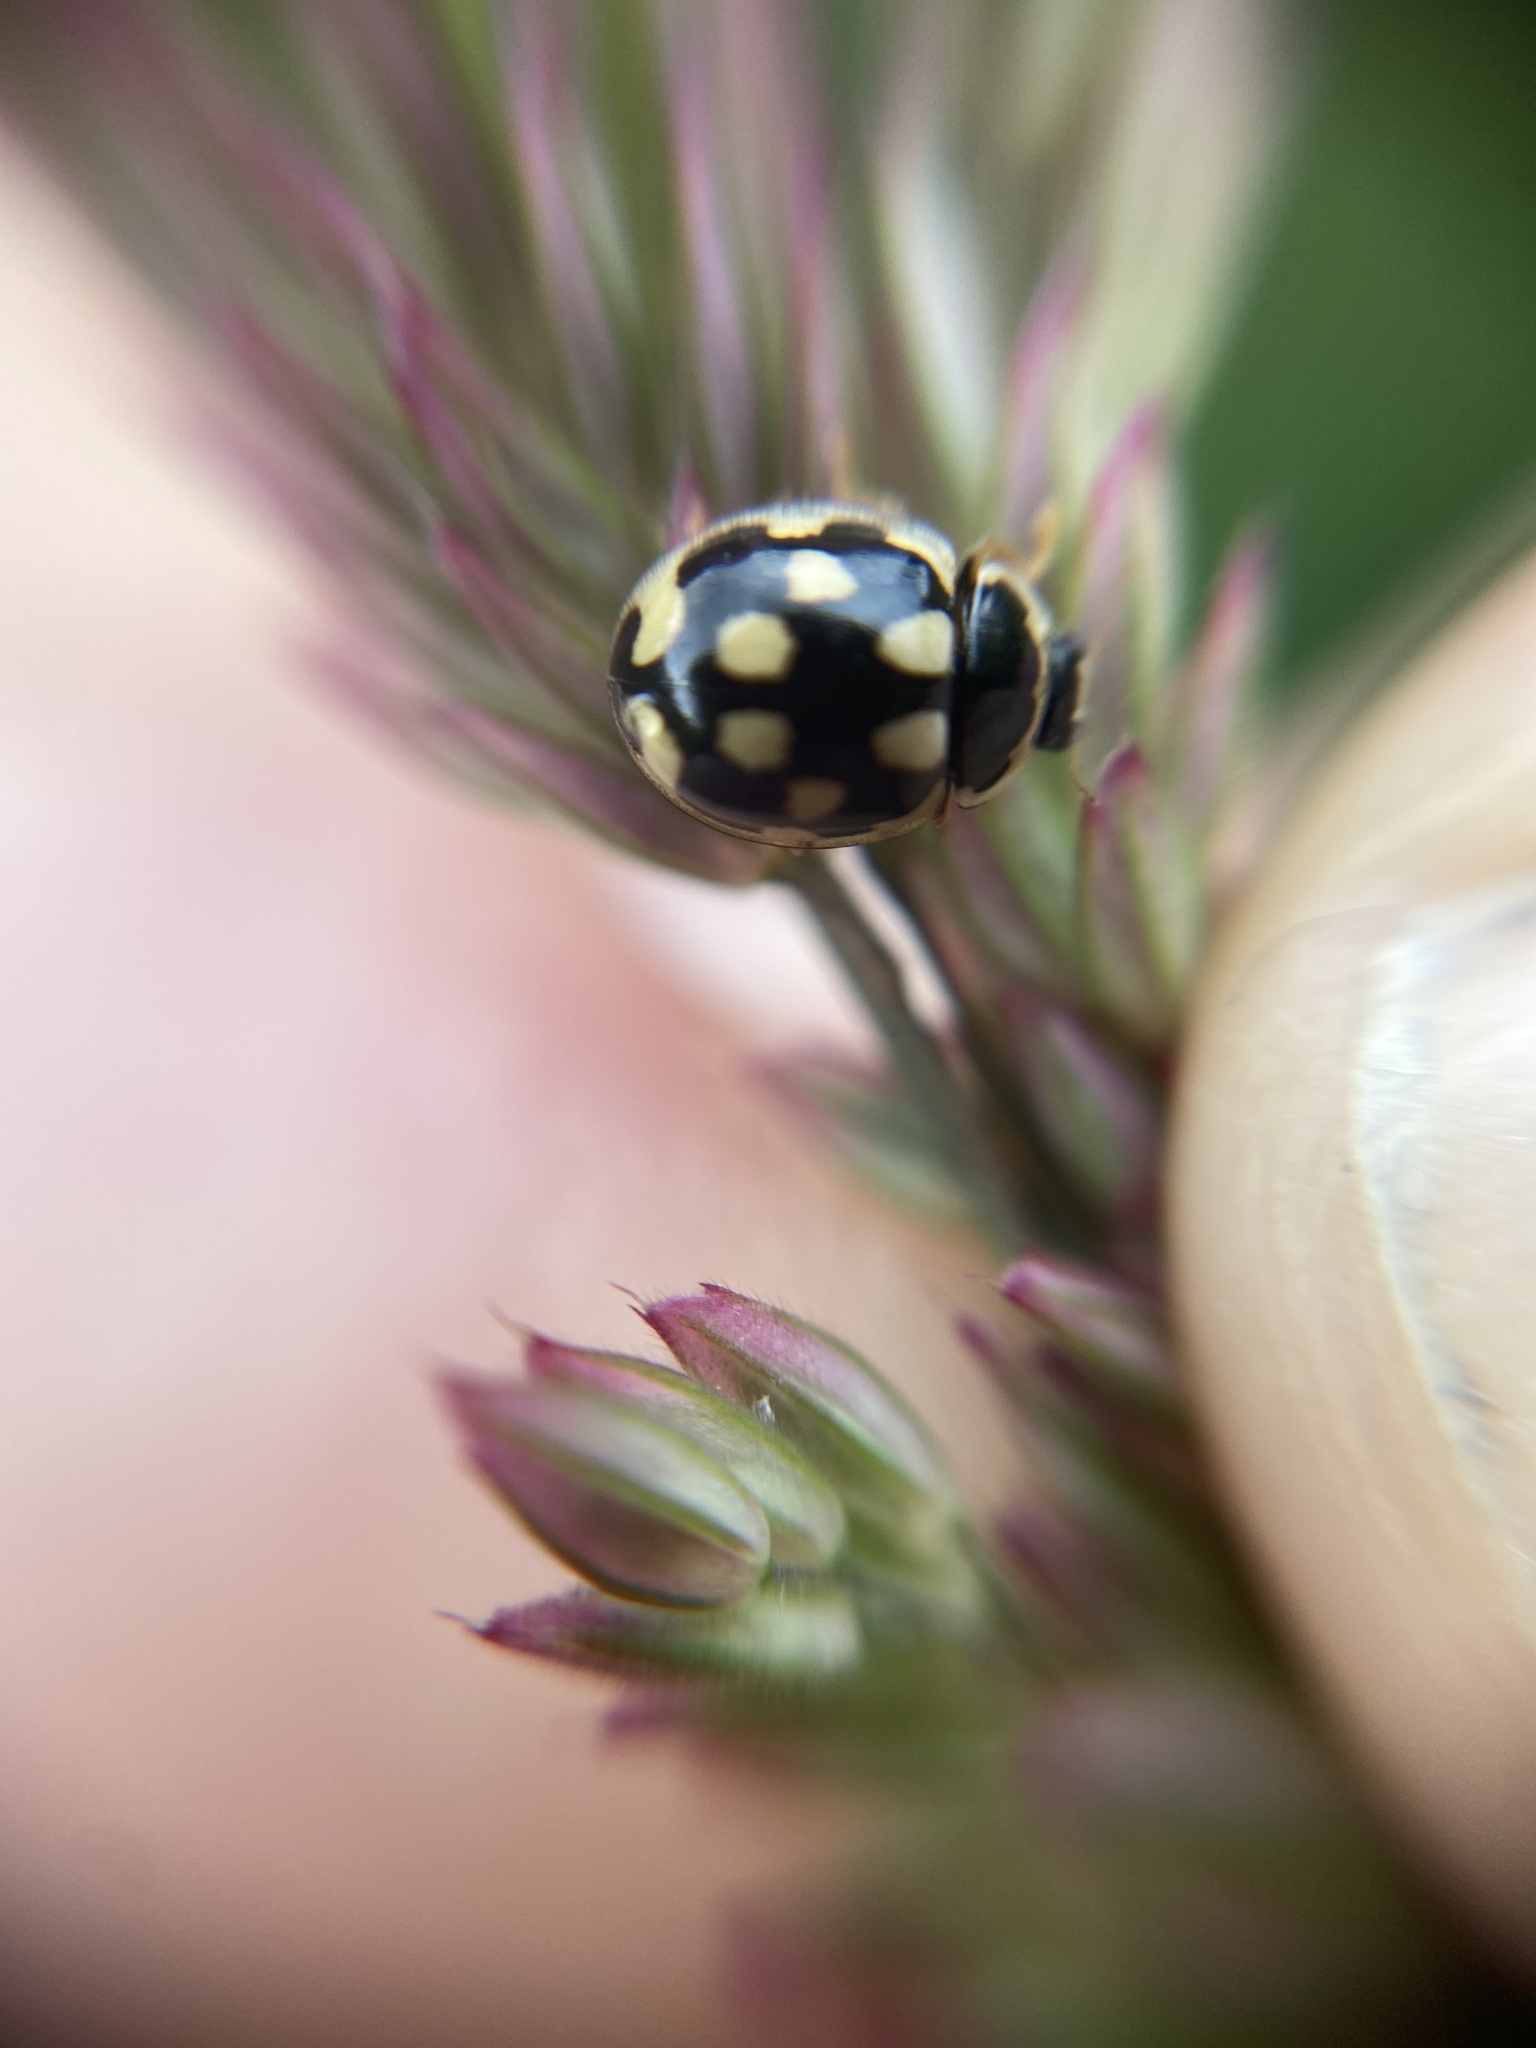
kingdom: Animalia
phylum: Arthropoda
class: Insecta
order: Coleoptera
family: Coccinellidae
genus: Propylaea
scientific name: Propylaea quatuordecimpunctata
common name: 14-spotted ladybird beetle
